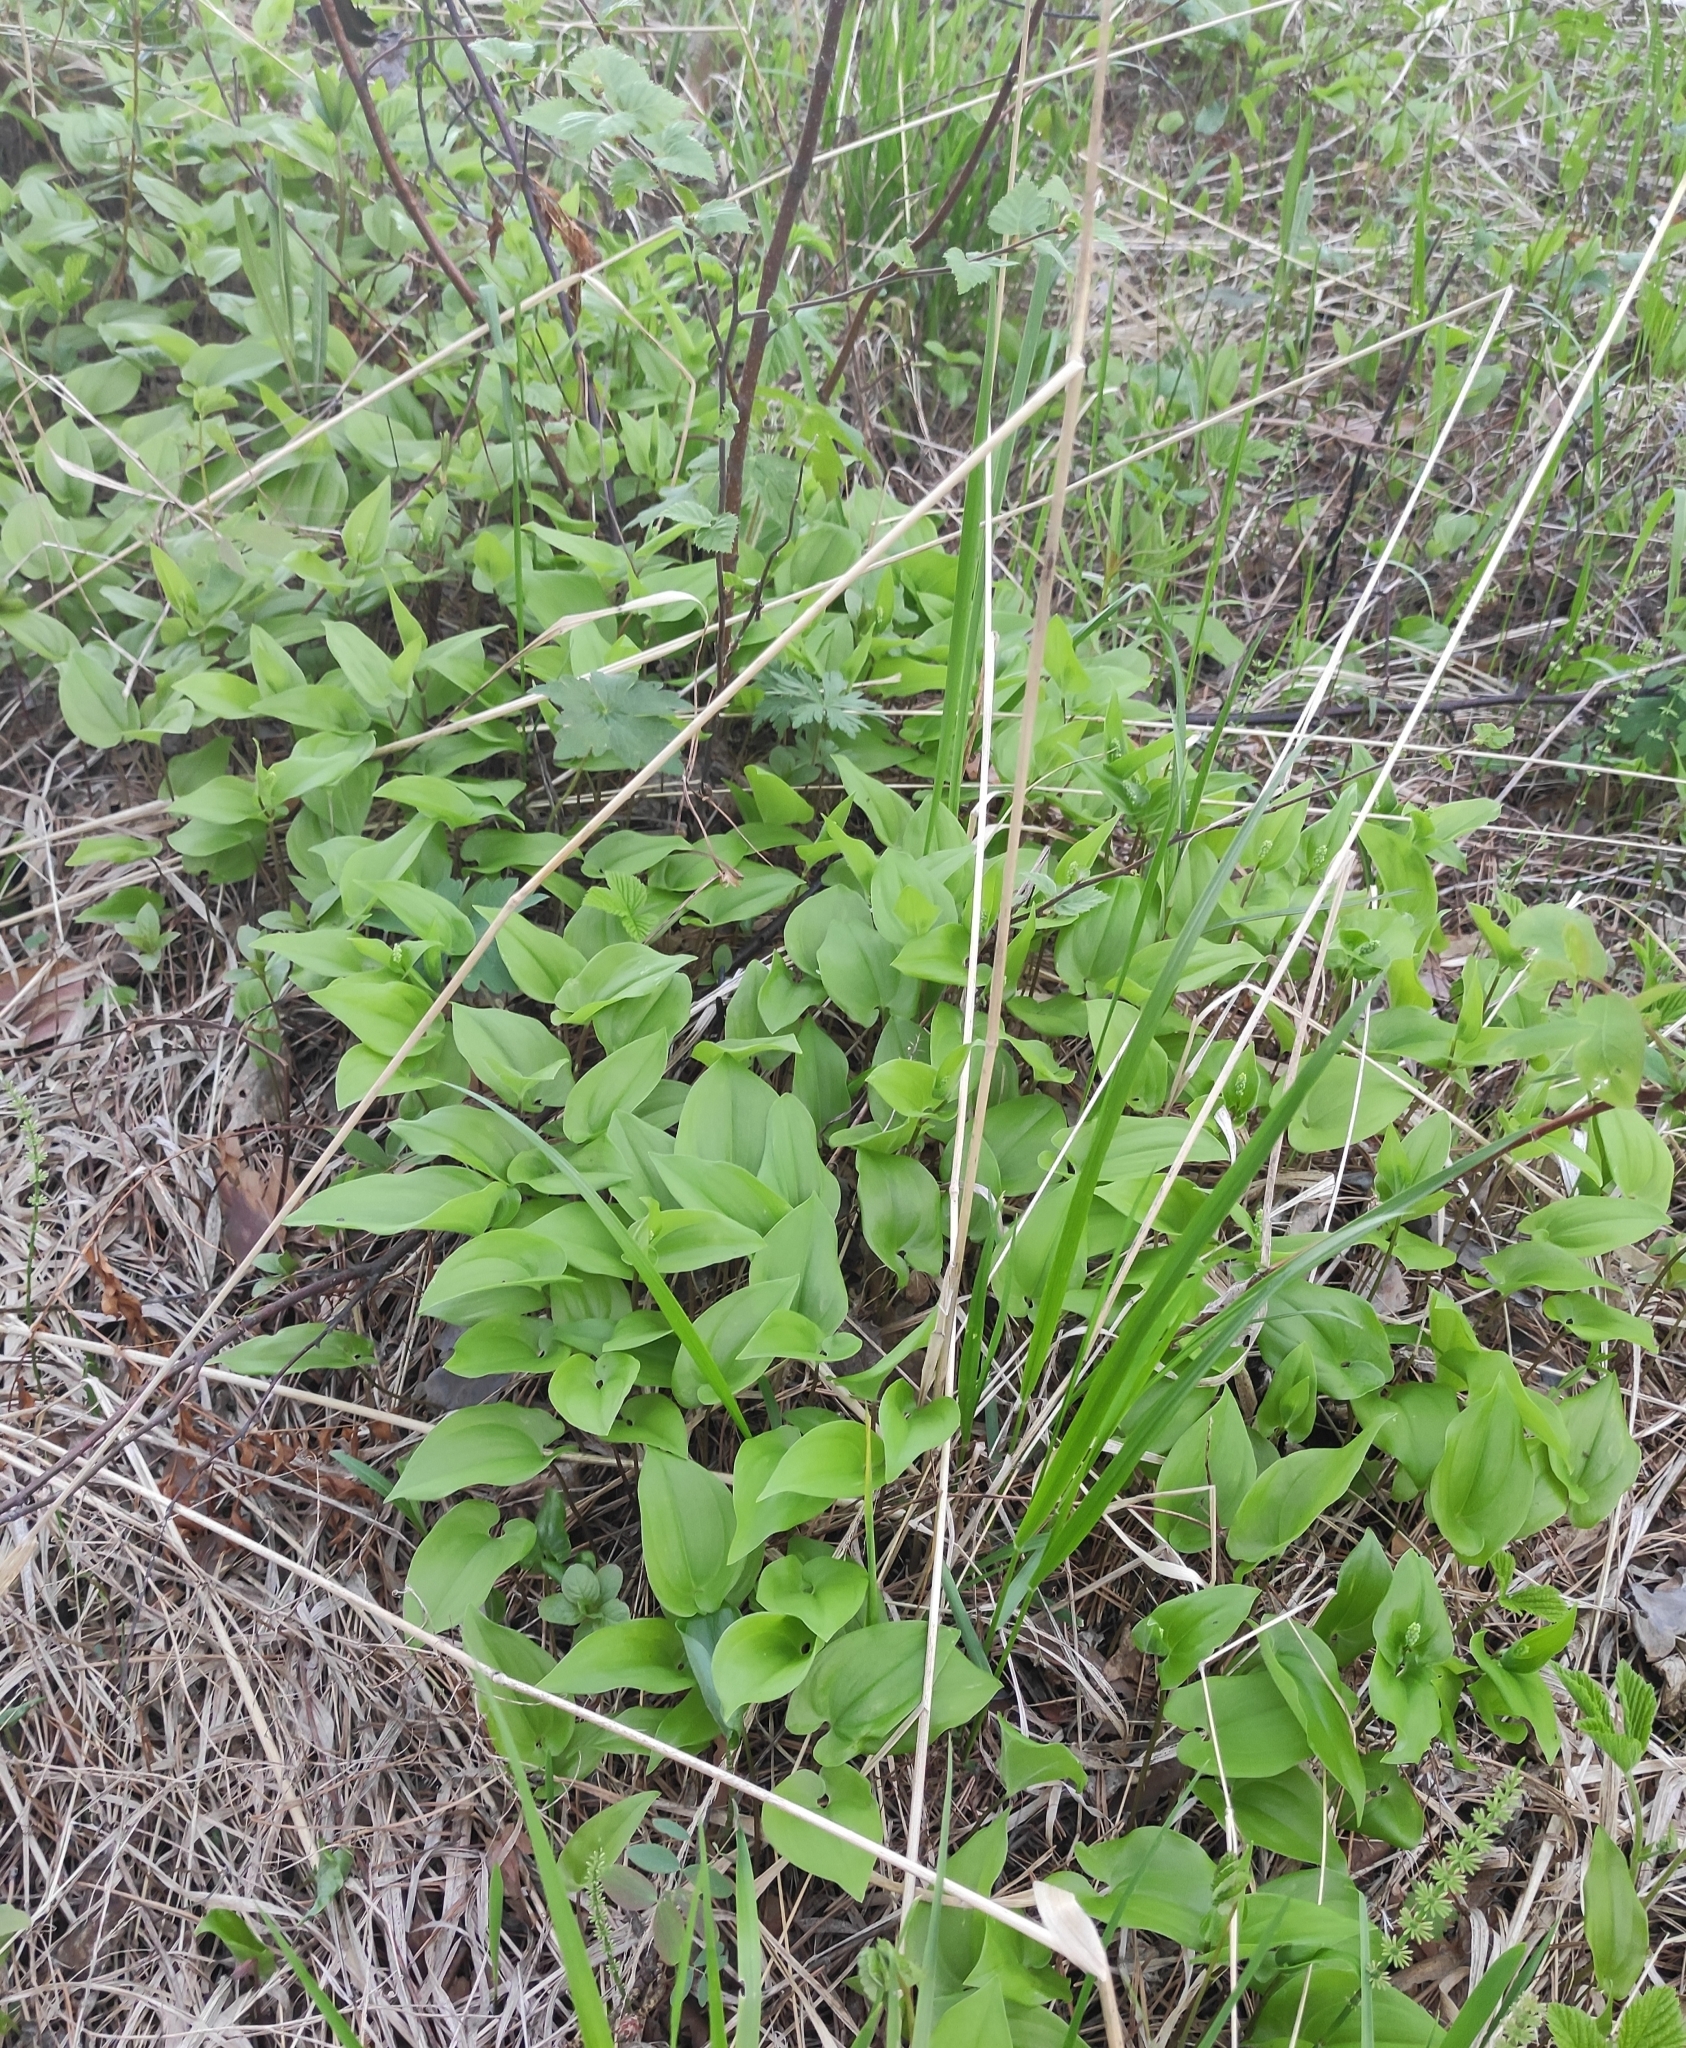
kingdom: Plantae
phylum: Tracheophyta
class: Liliopsida
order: Asparagales
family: Asparagaceae
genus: Maianthemum
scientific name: Maianthemum bifolium
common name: May lily
